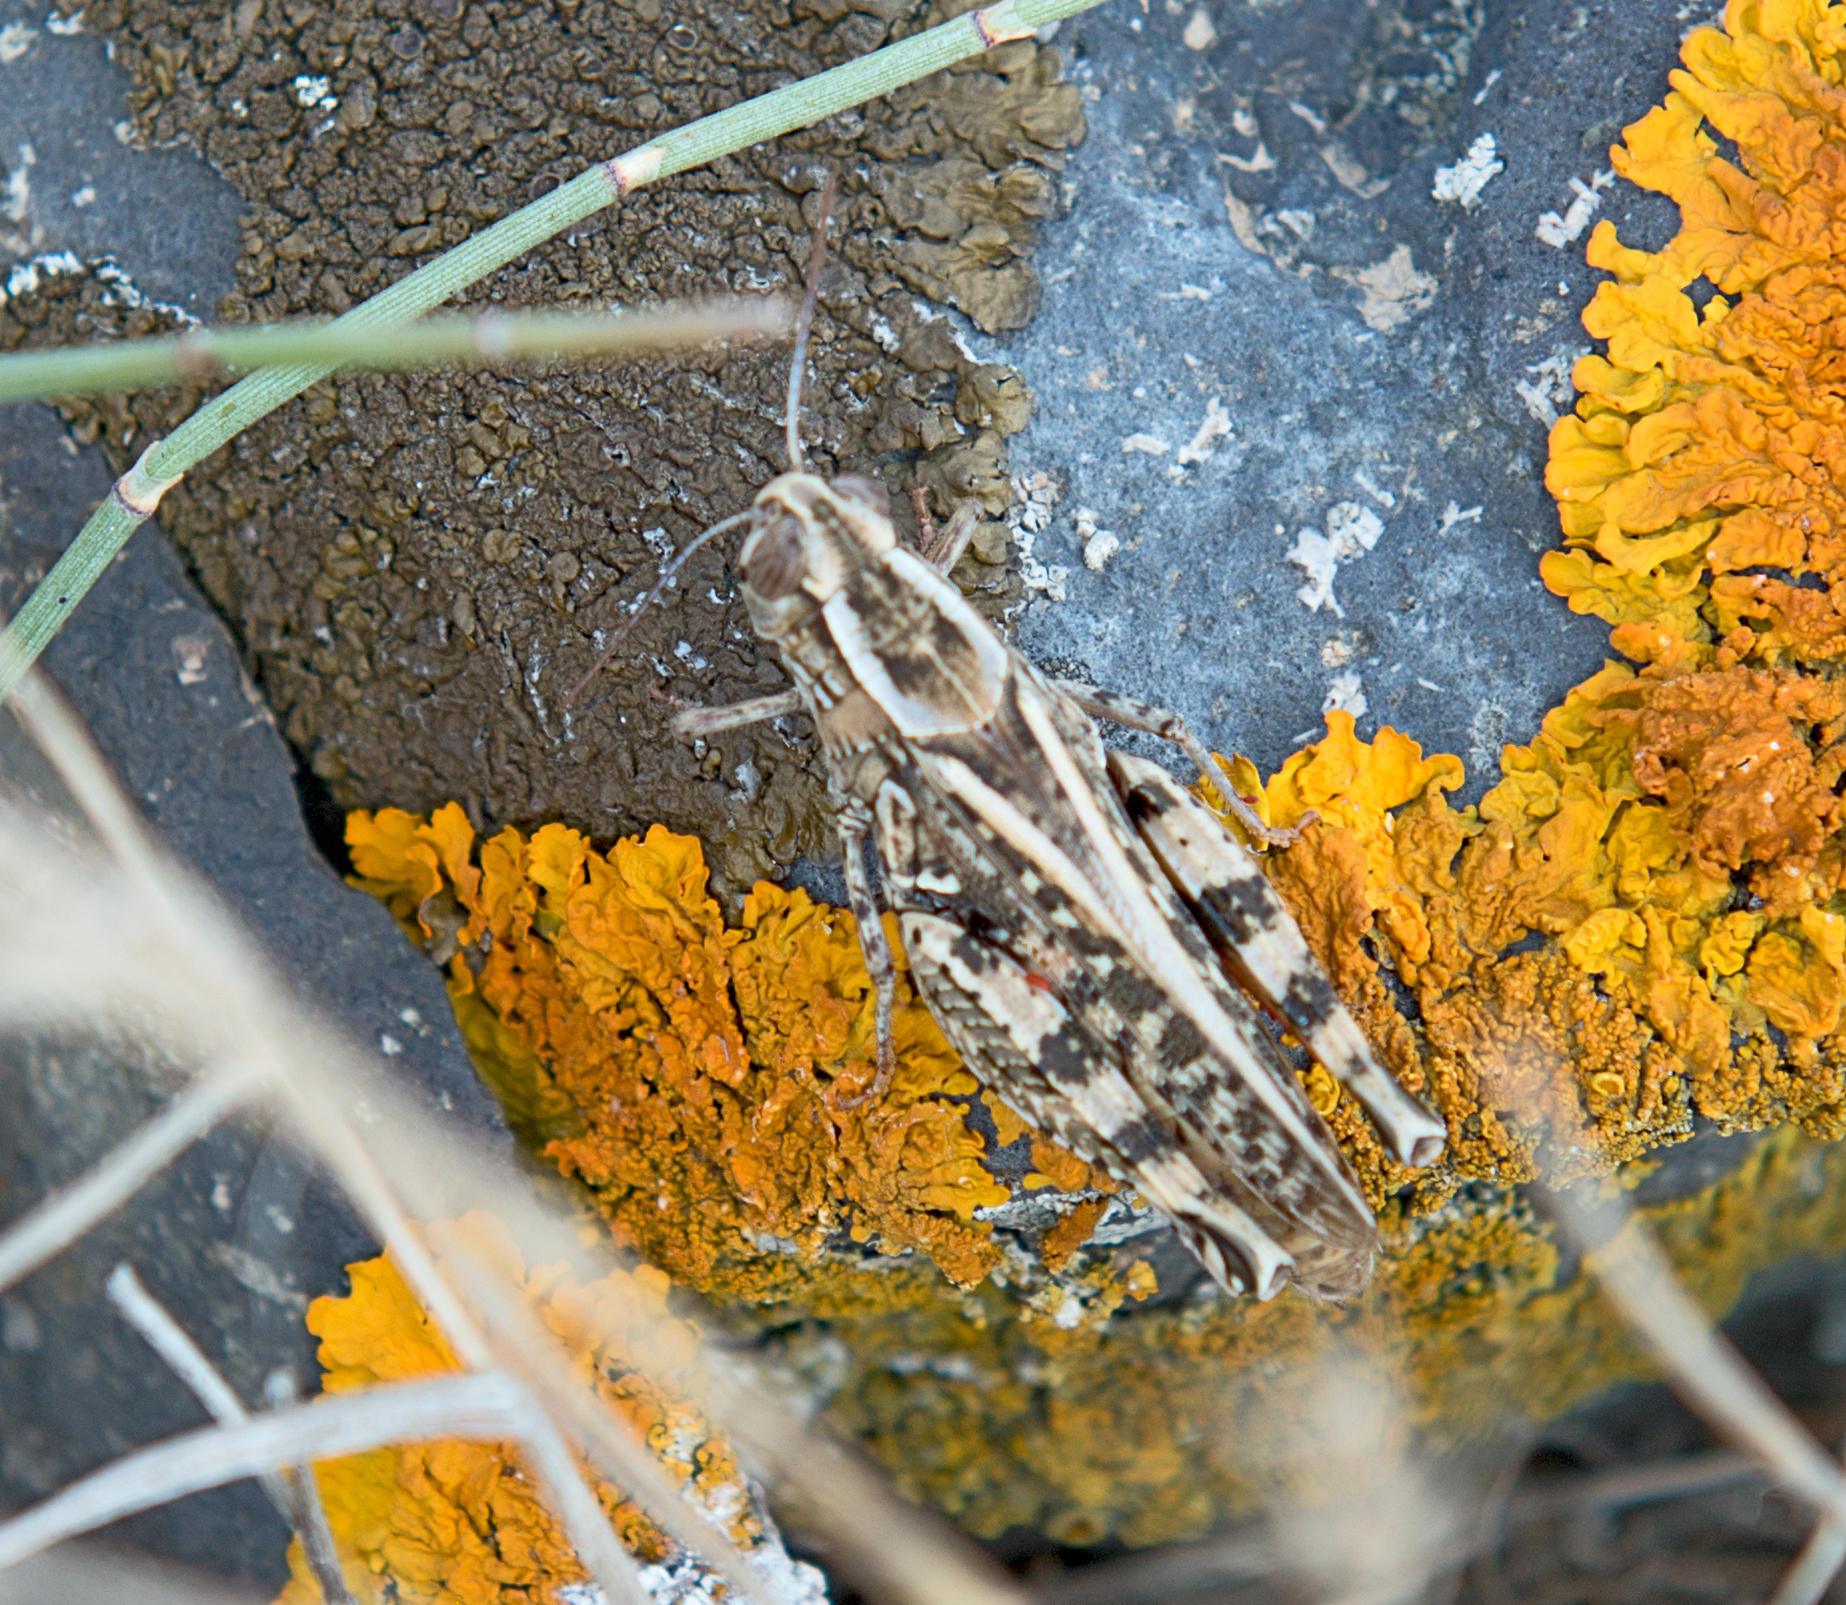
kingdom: Animalia
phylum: Arthropoda
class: Insecta
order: Orthoptera
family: Acrididae
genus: Calliptamus
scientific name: Calliptamus italicus
